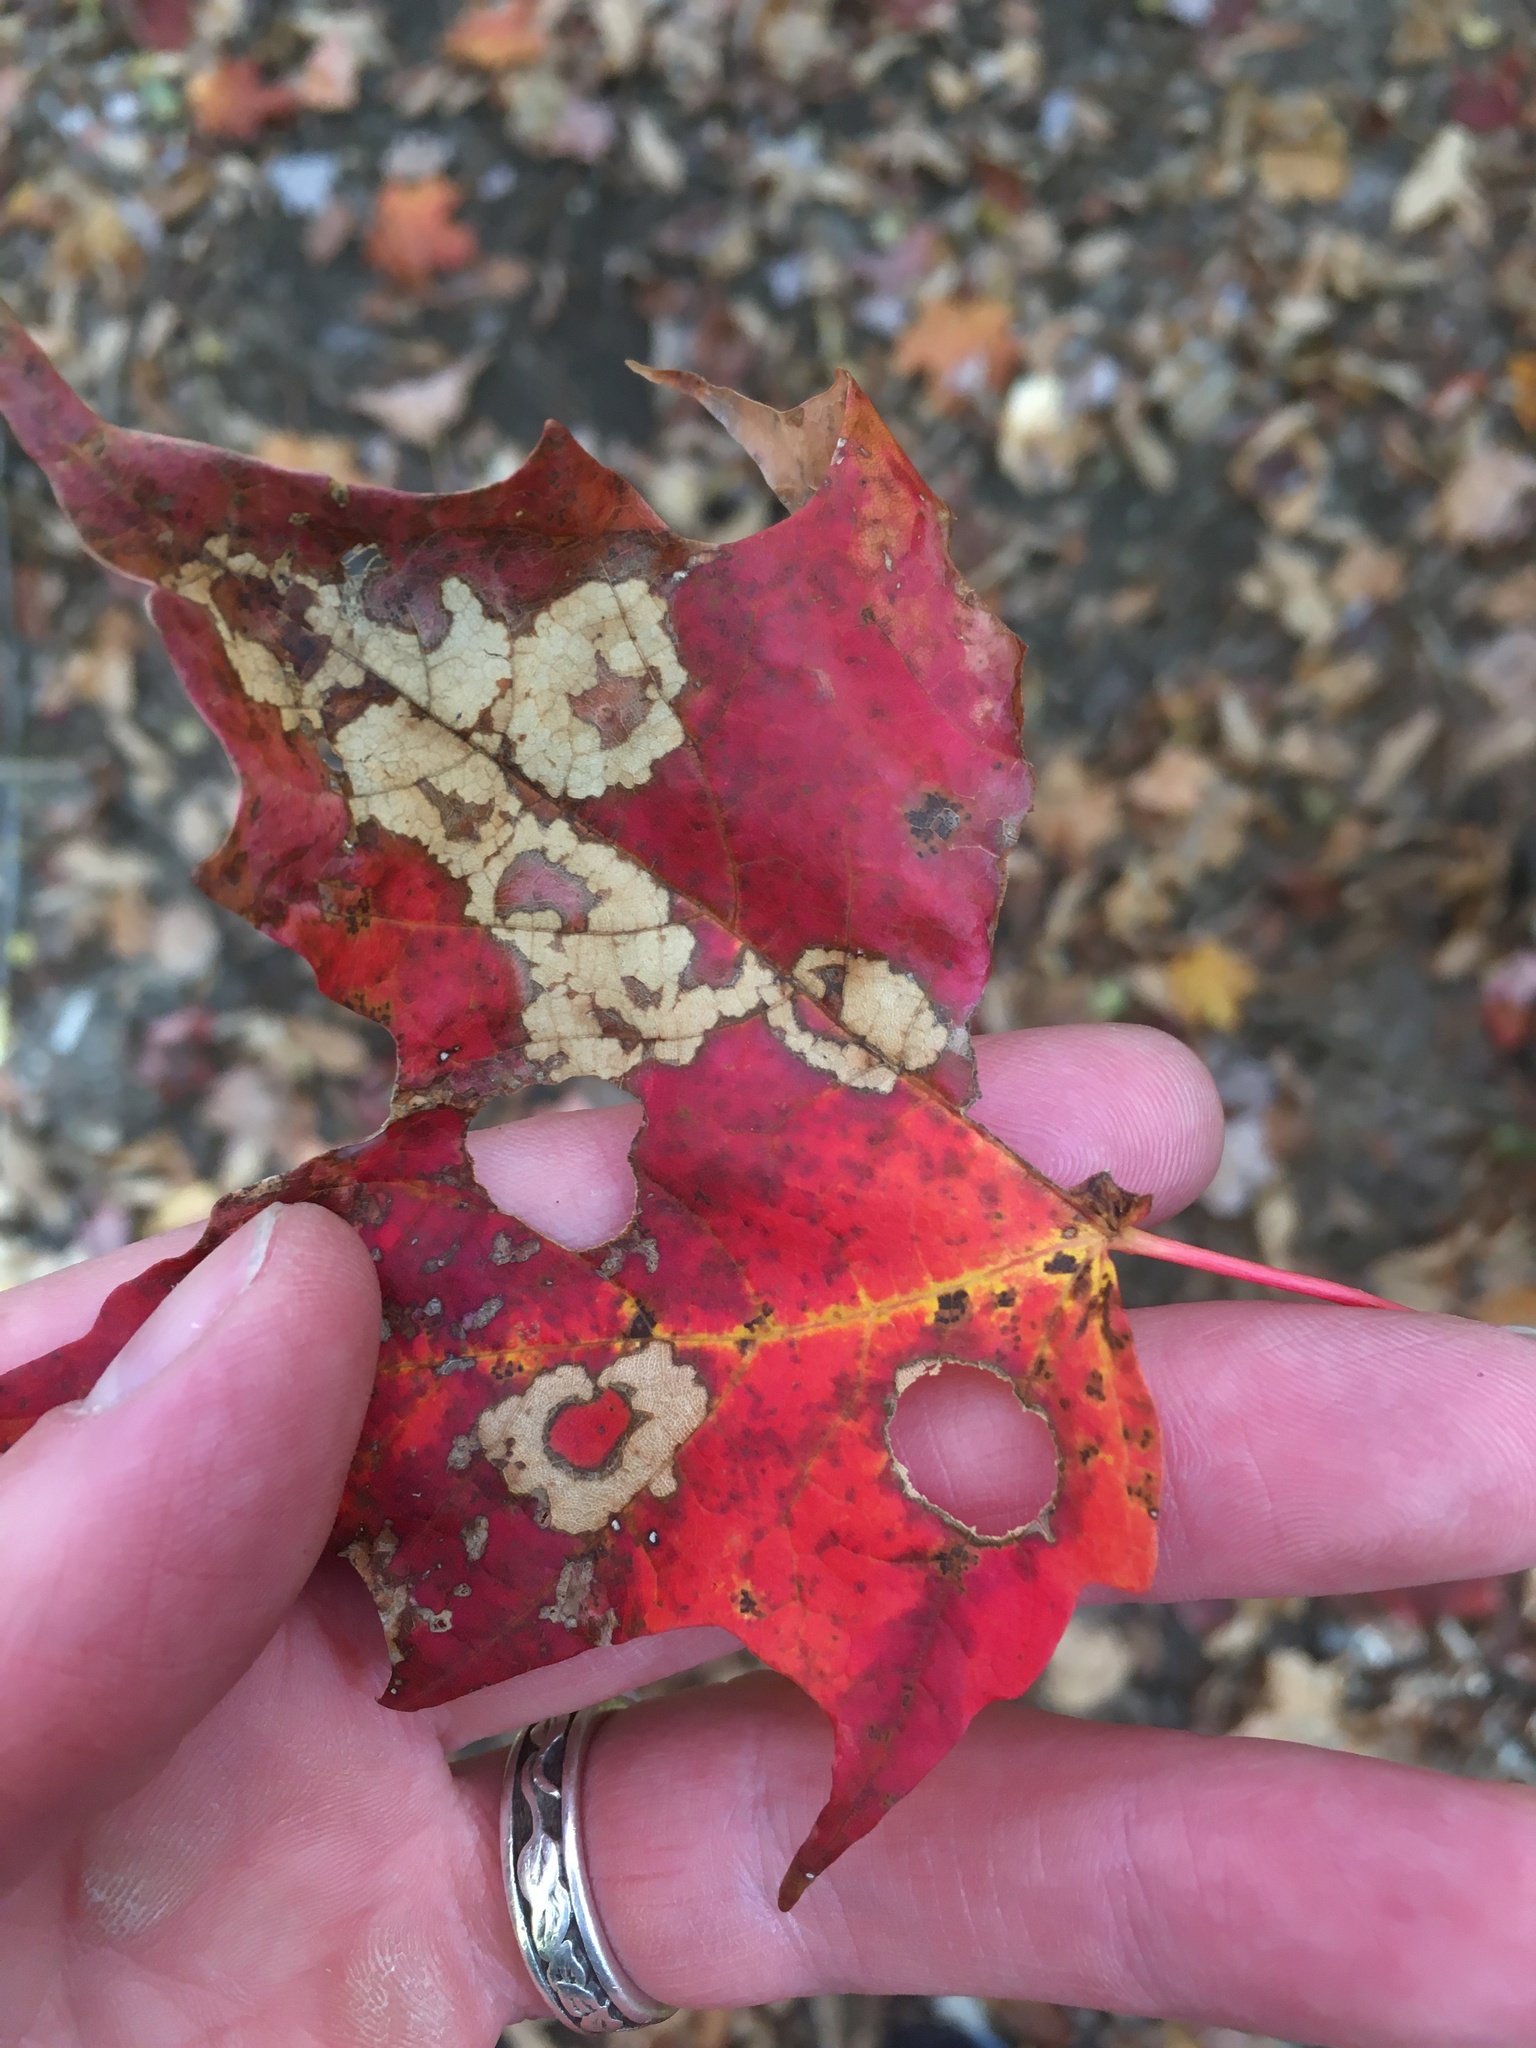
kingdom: Animalia
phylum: Arthropoda
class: Insecta
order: Lepidoptera
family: Incurvariidae
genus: Paraclemensia
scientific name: Paraclemensia acerifoliella
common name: Maple leafcutter
